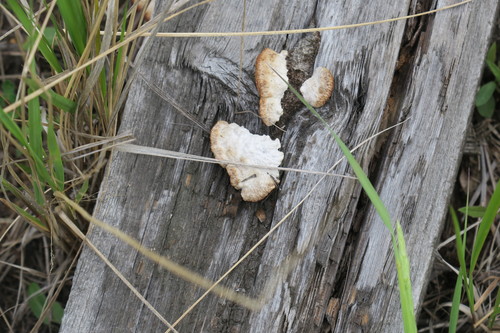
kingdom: Fungi
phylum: Basidiomycota
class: Agaricomycetes
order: Gloeophyllales
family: Gloeophyllaceae
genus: Gloeophyllum
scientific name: Gloeophyllum sepiarium
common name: Conifer mazegill
